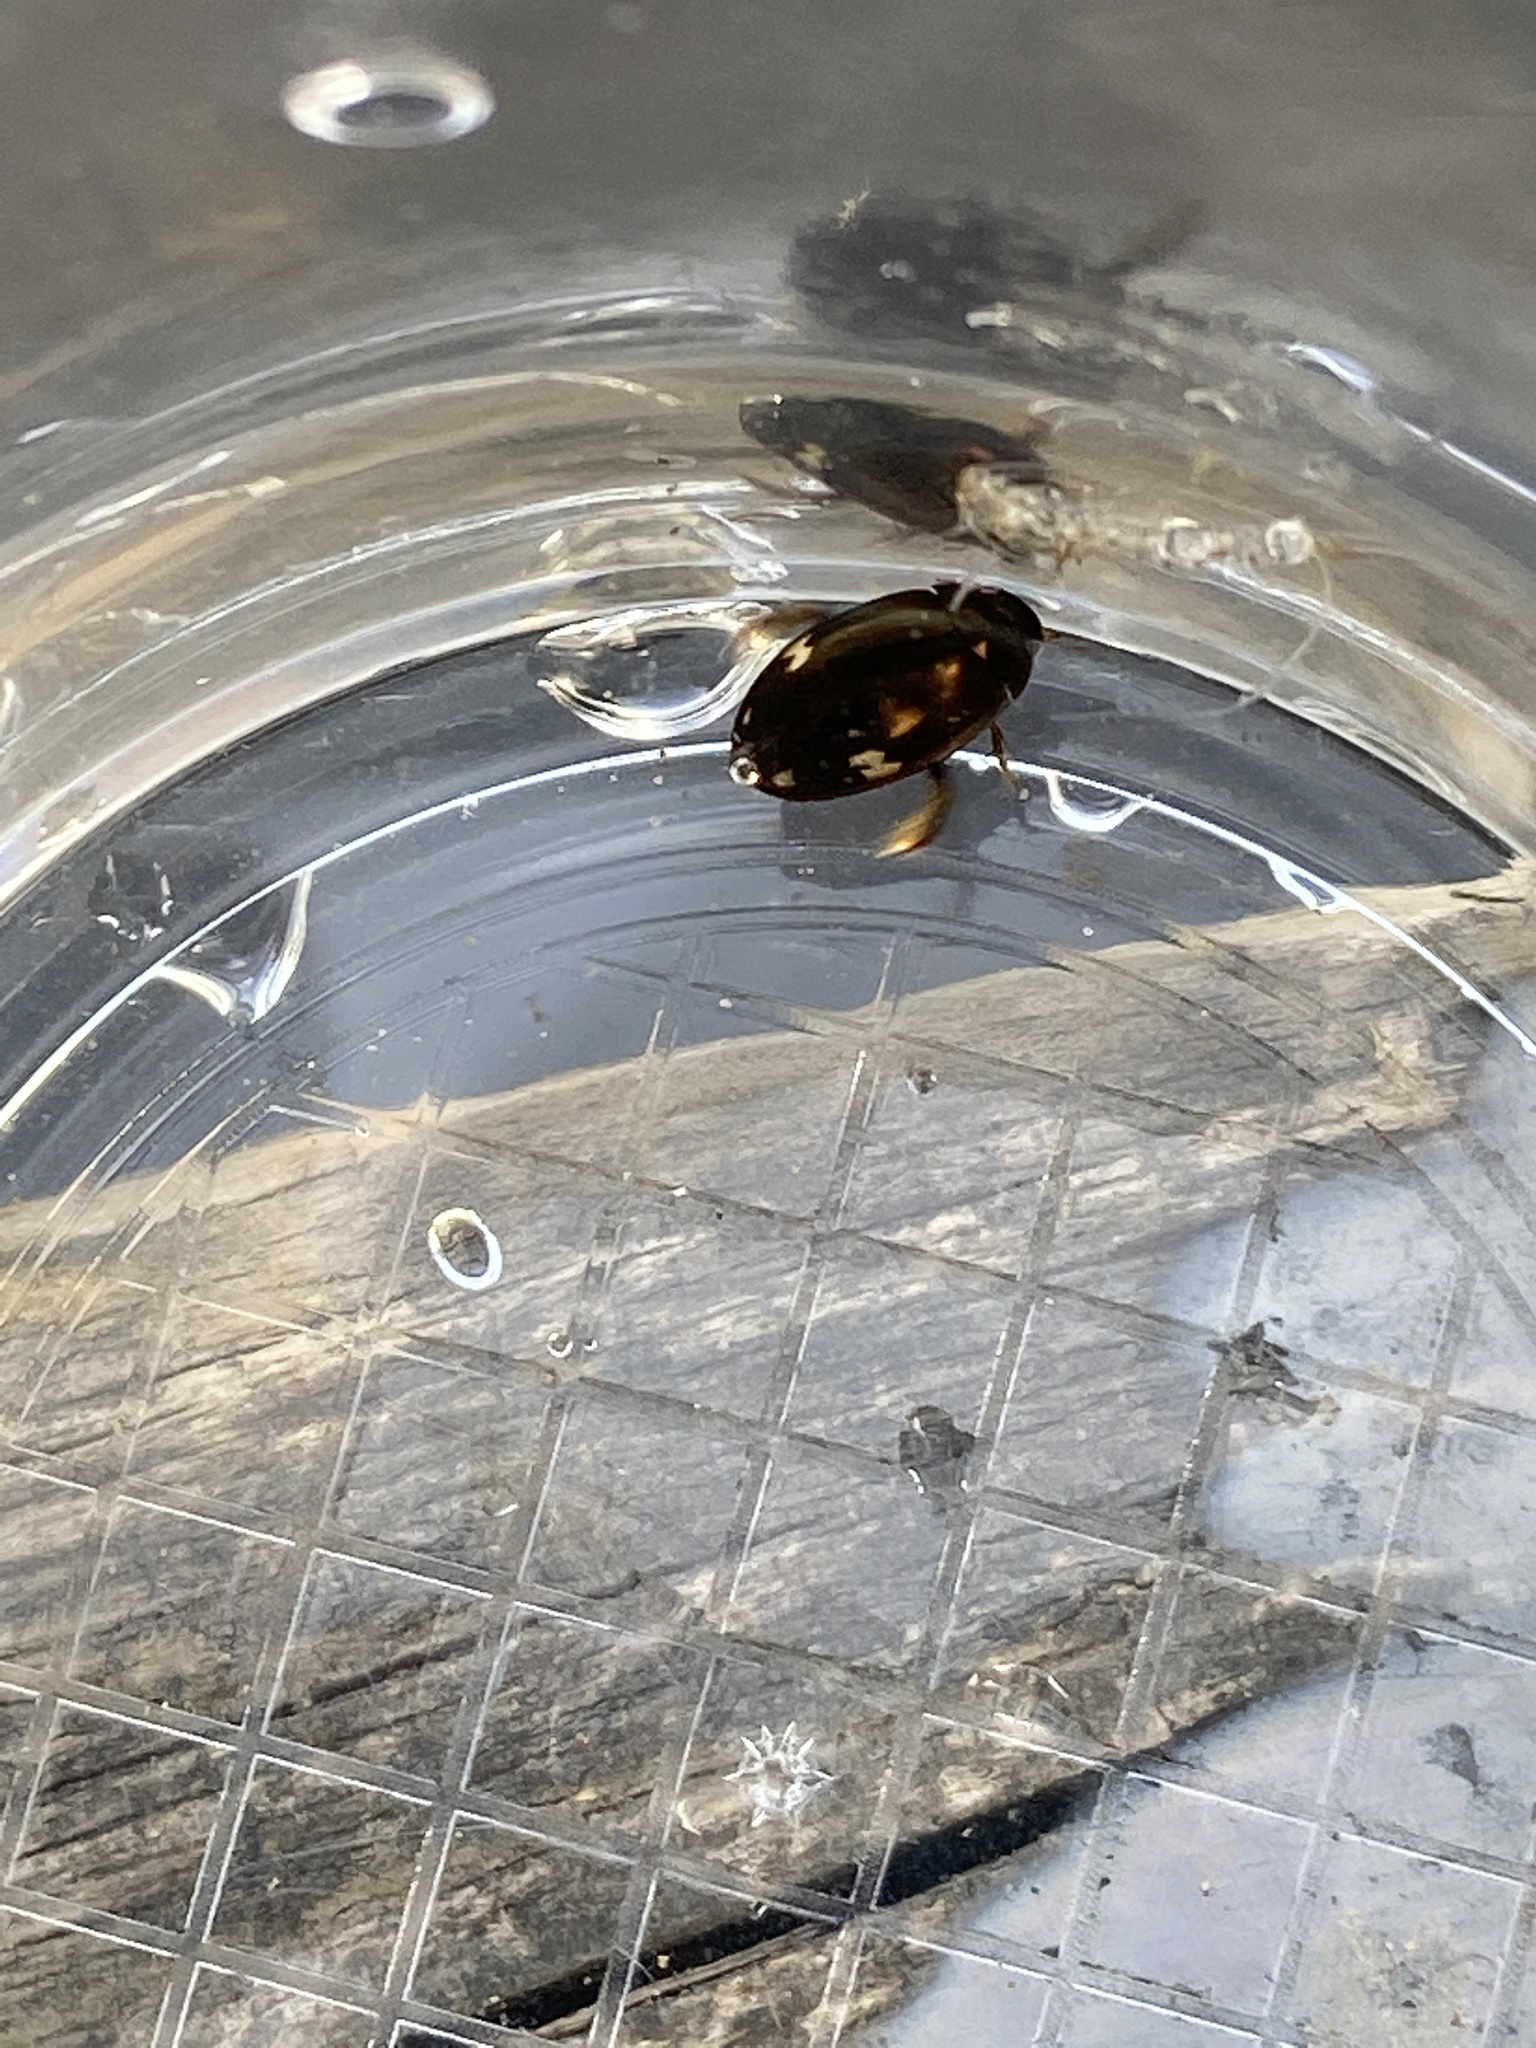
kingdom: Animalia
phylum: Arthropoda
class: Insecta
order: Coleoptera
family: Dytiscidae
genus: Agabus
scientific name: Agabus didymus
